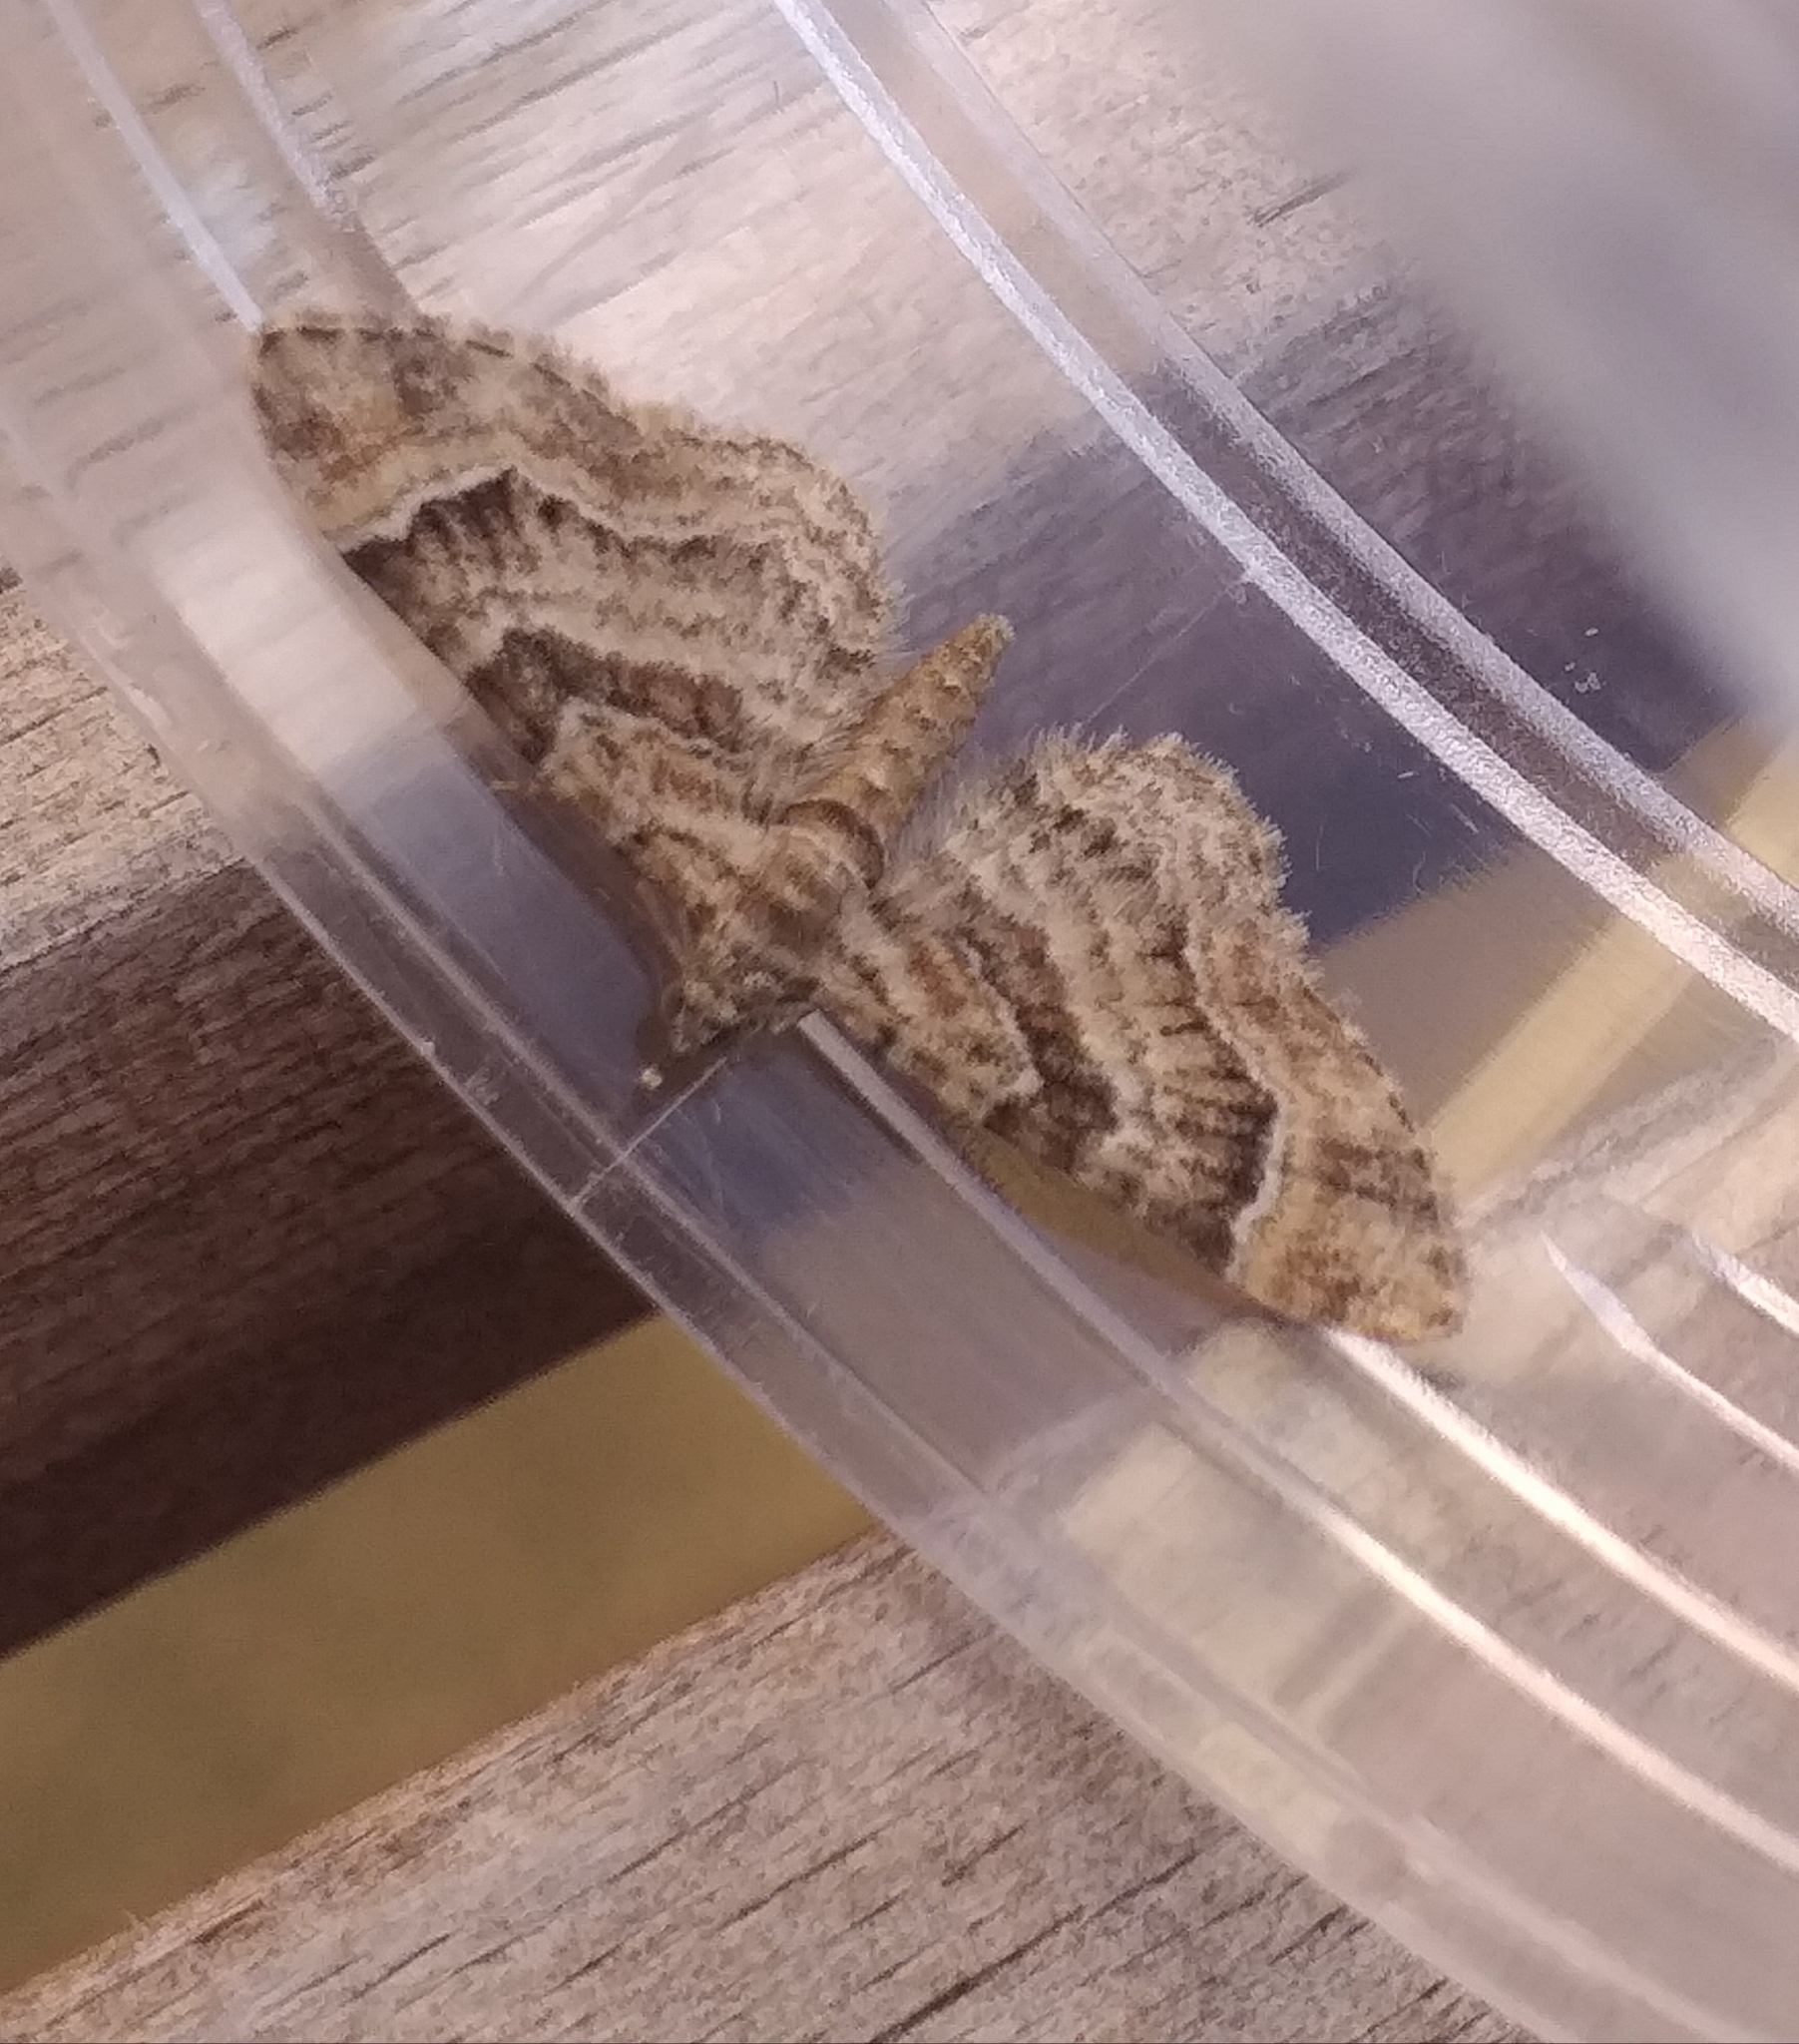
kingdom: Animalia
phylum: Arthropoda
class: Insecta
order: Lepidoptera
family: Geometridae
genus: Gymnoscelis
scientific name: Gymnoscelis rufifasciata
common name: Double-striped pug
